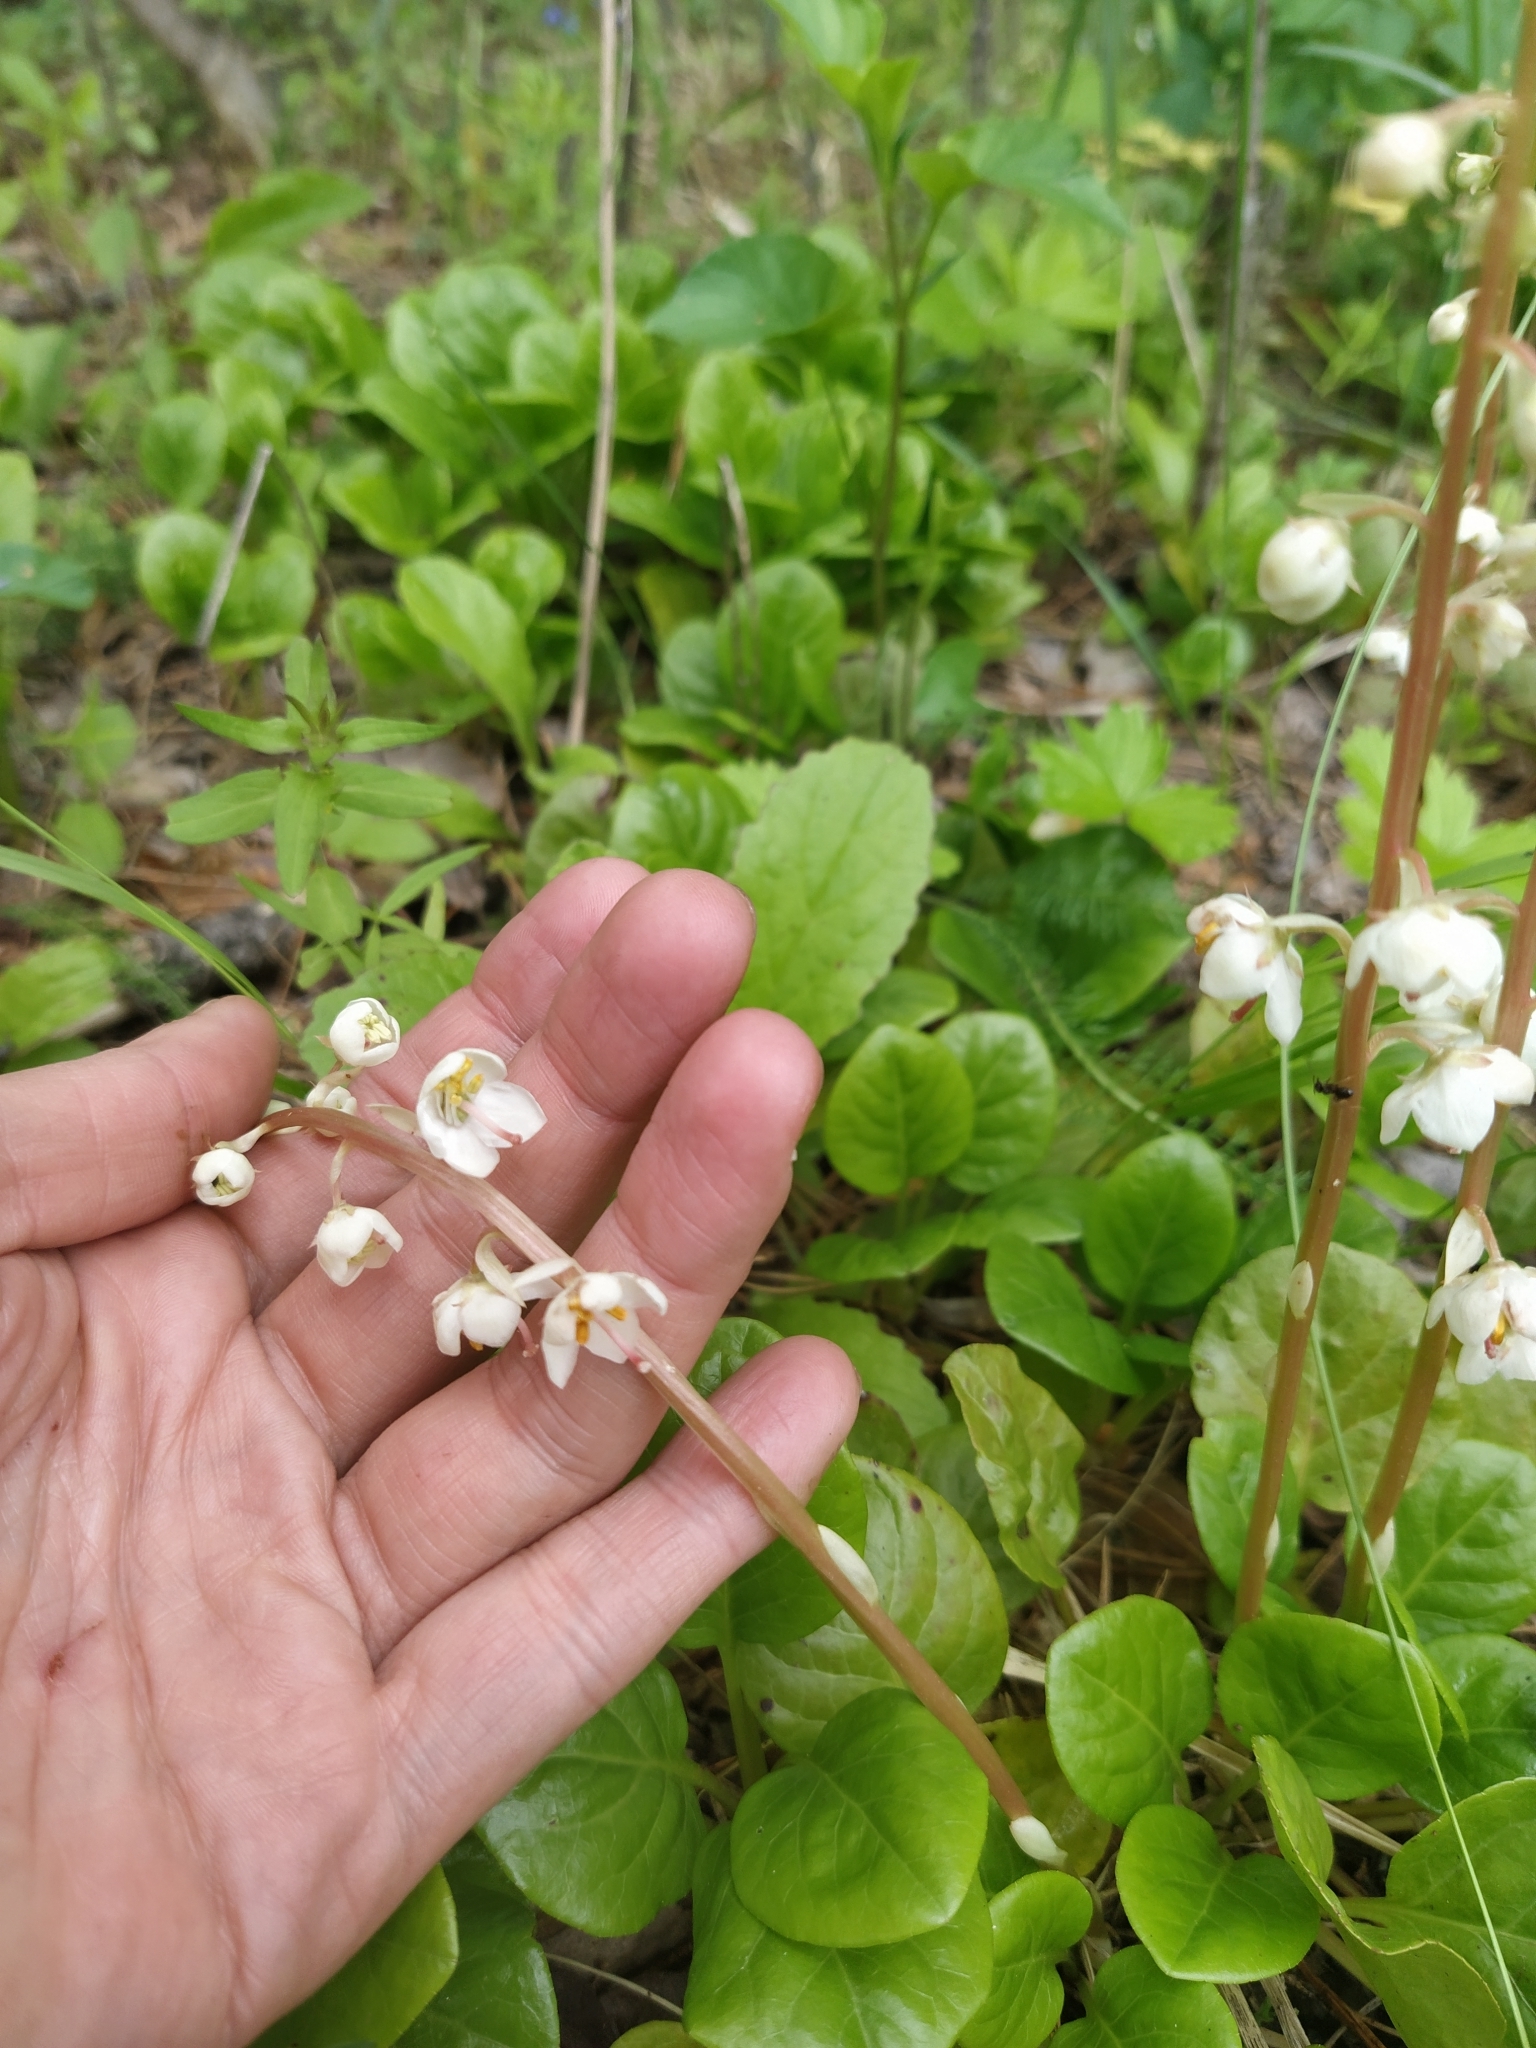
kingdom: Plantae
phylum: Tracheophyta
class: Magnoliopsida
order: Ericales
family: Ericaceae
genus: Pyrola
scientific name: Pyrola rotundifolia
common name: Round-leaved wintergreen
